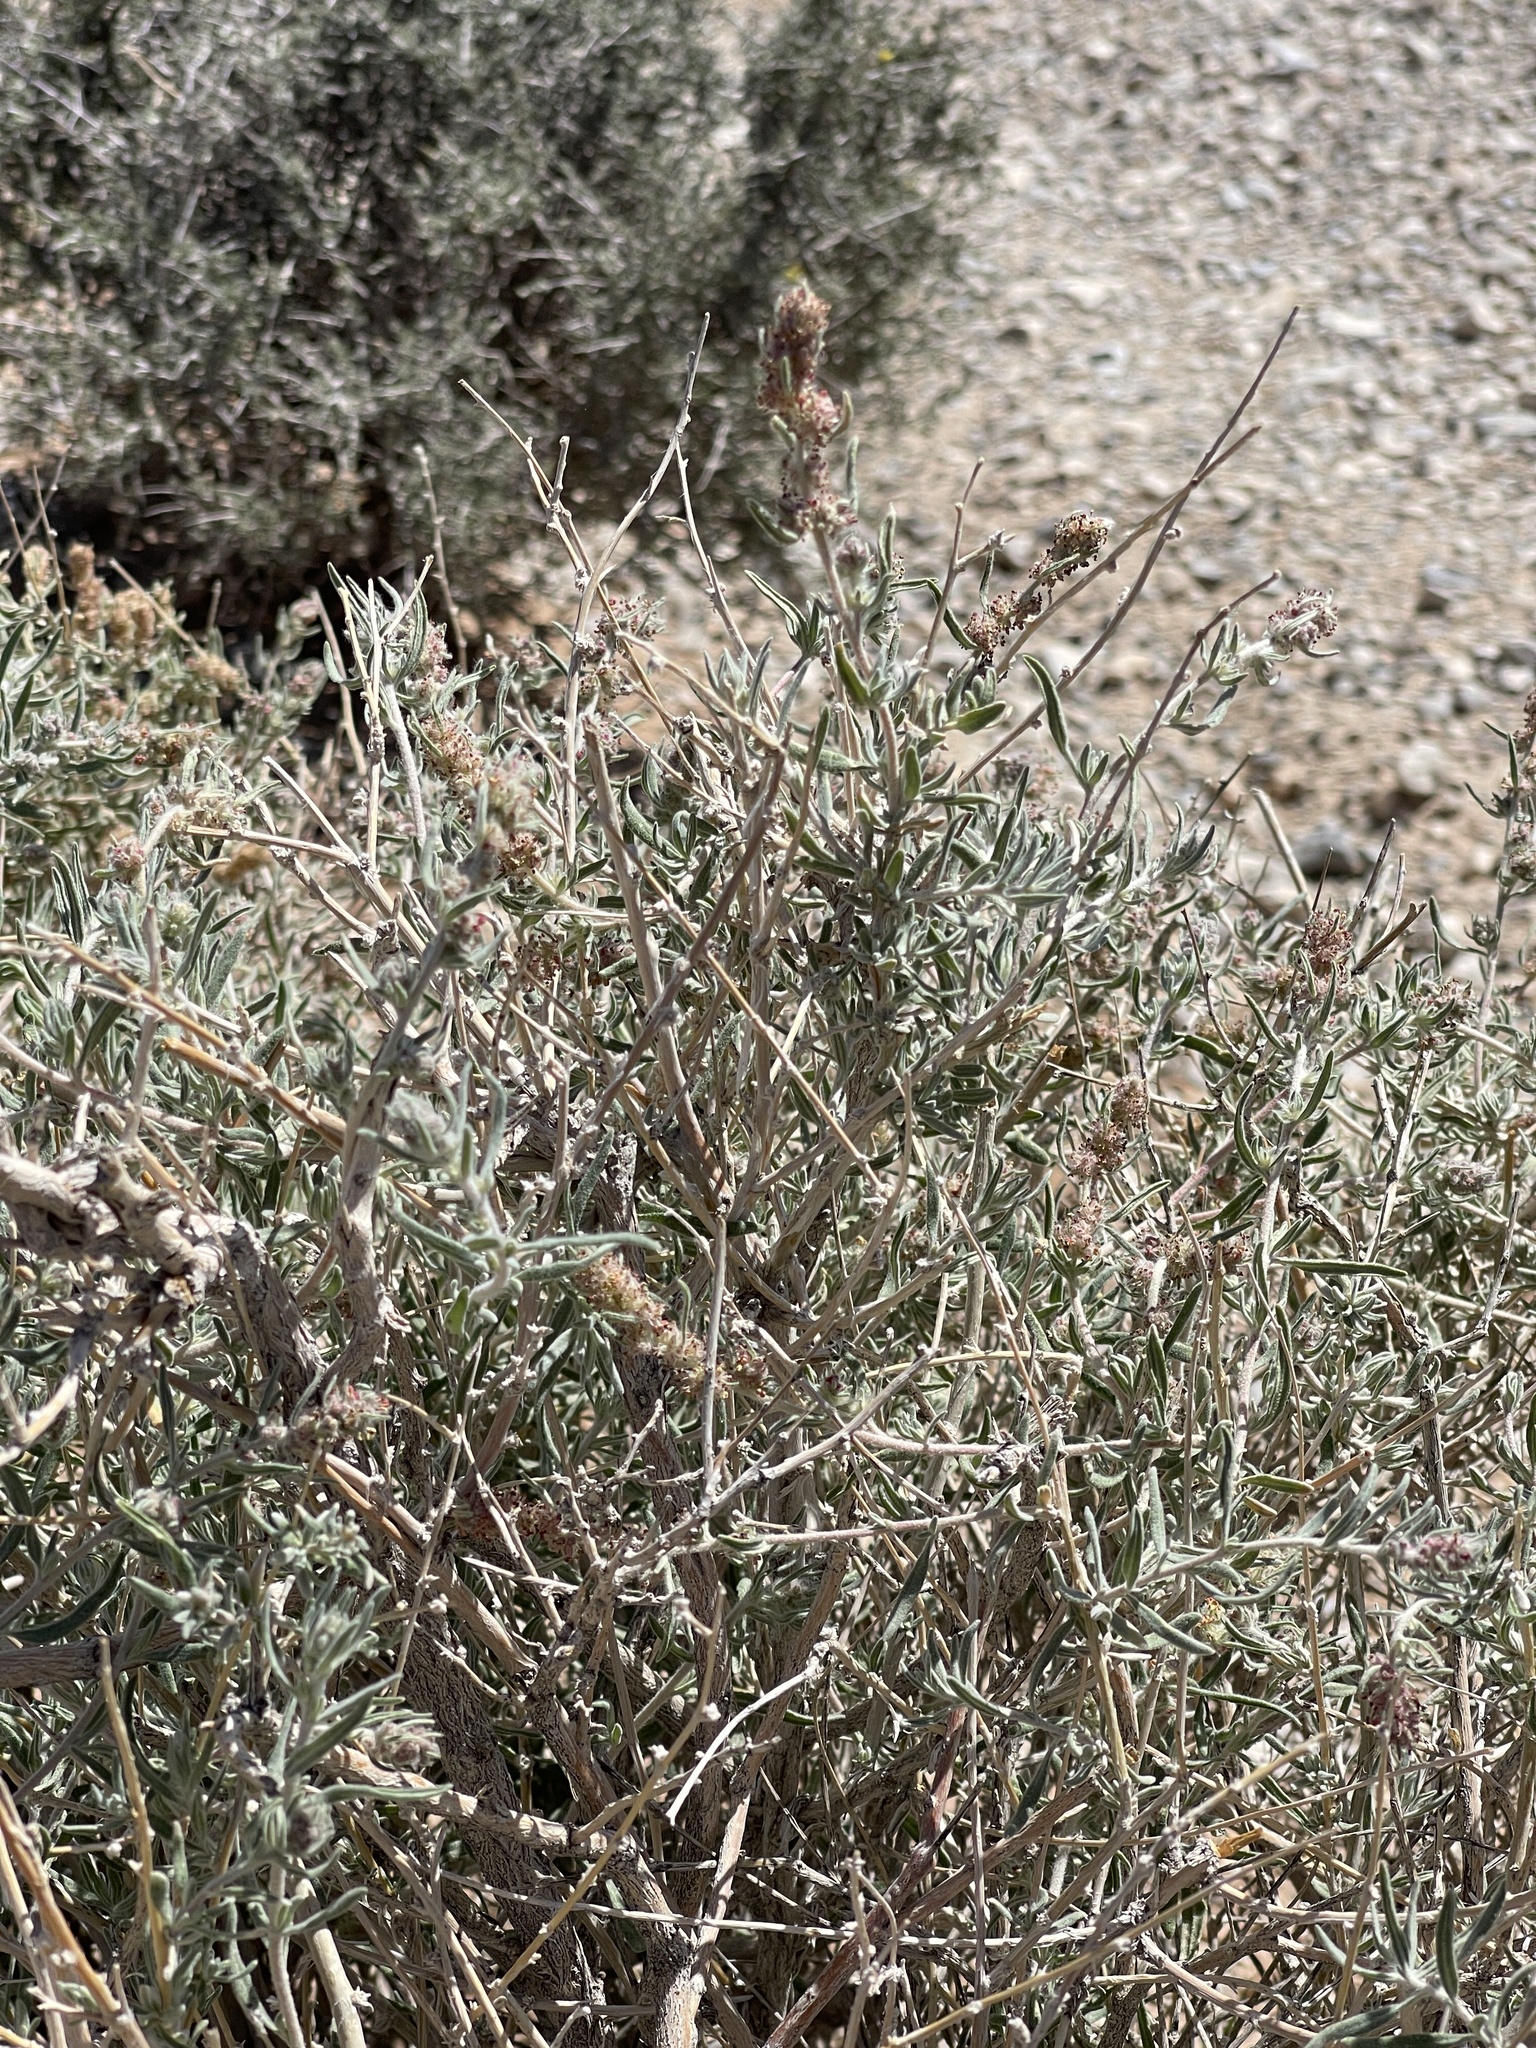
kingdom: Plantae
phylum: Tracheophyta
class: Magnoliopsida
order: Caryophyllales
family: Amaranthaceae
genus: Atriplex
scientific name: Atriplex canescens
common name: Four-wing saltbush
